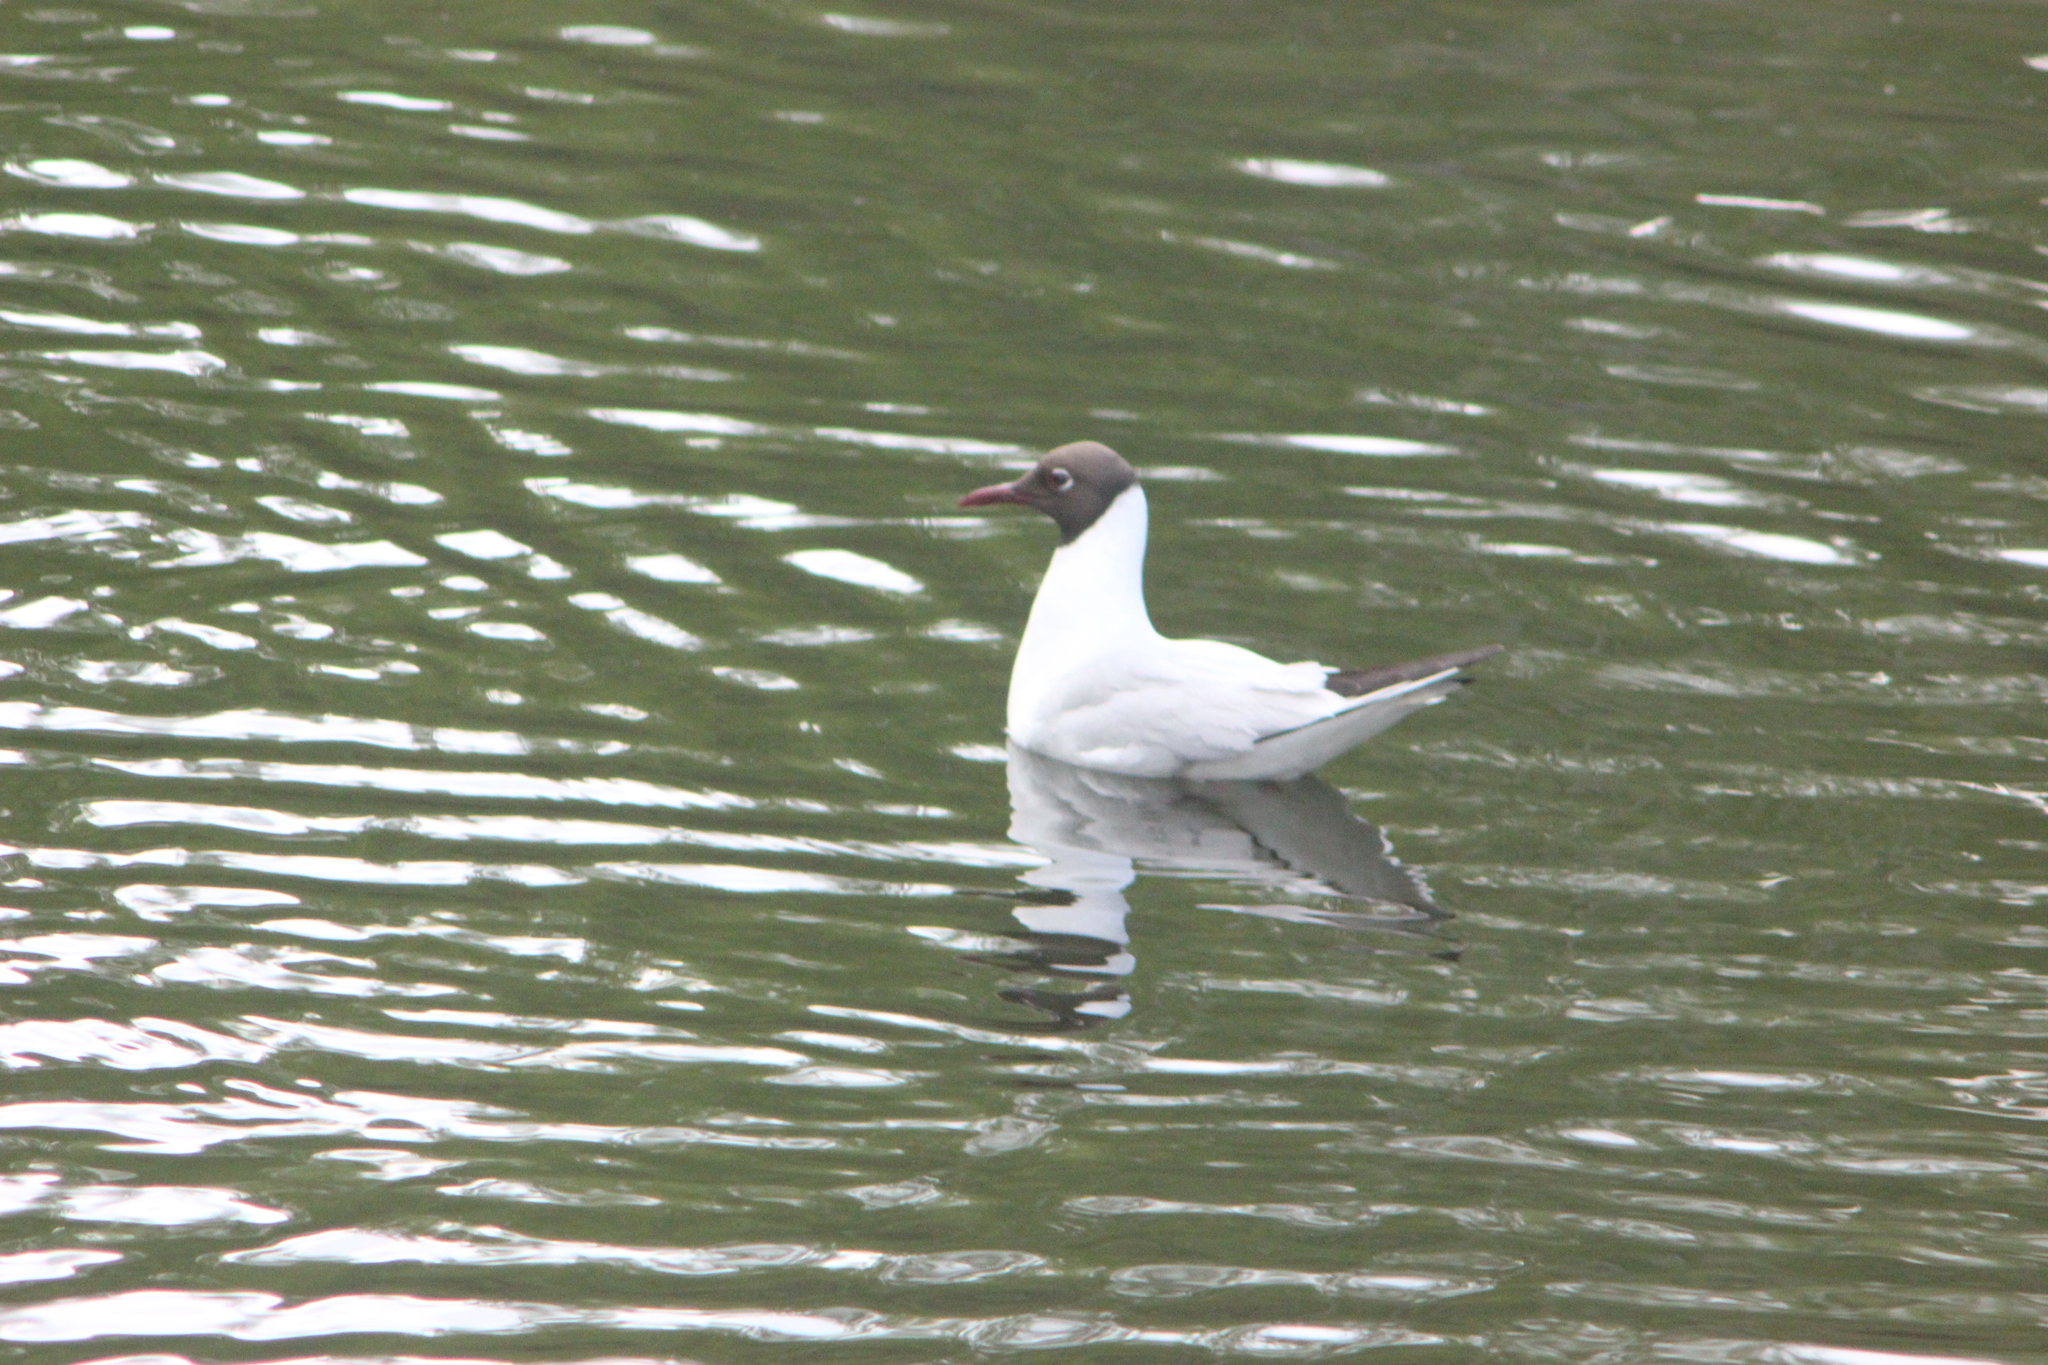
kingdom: Animalia
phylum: Chordata
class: Aves
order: Charadriiformes
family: Laridae
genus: Chroicocephalus
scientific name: Chroicocephalus ridibundus
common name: Black-headed gull
